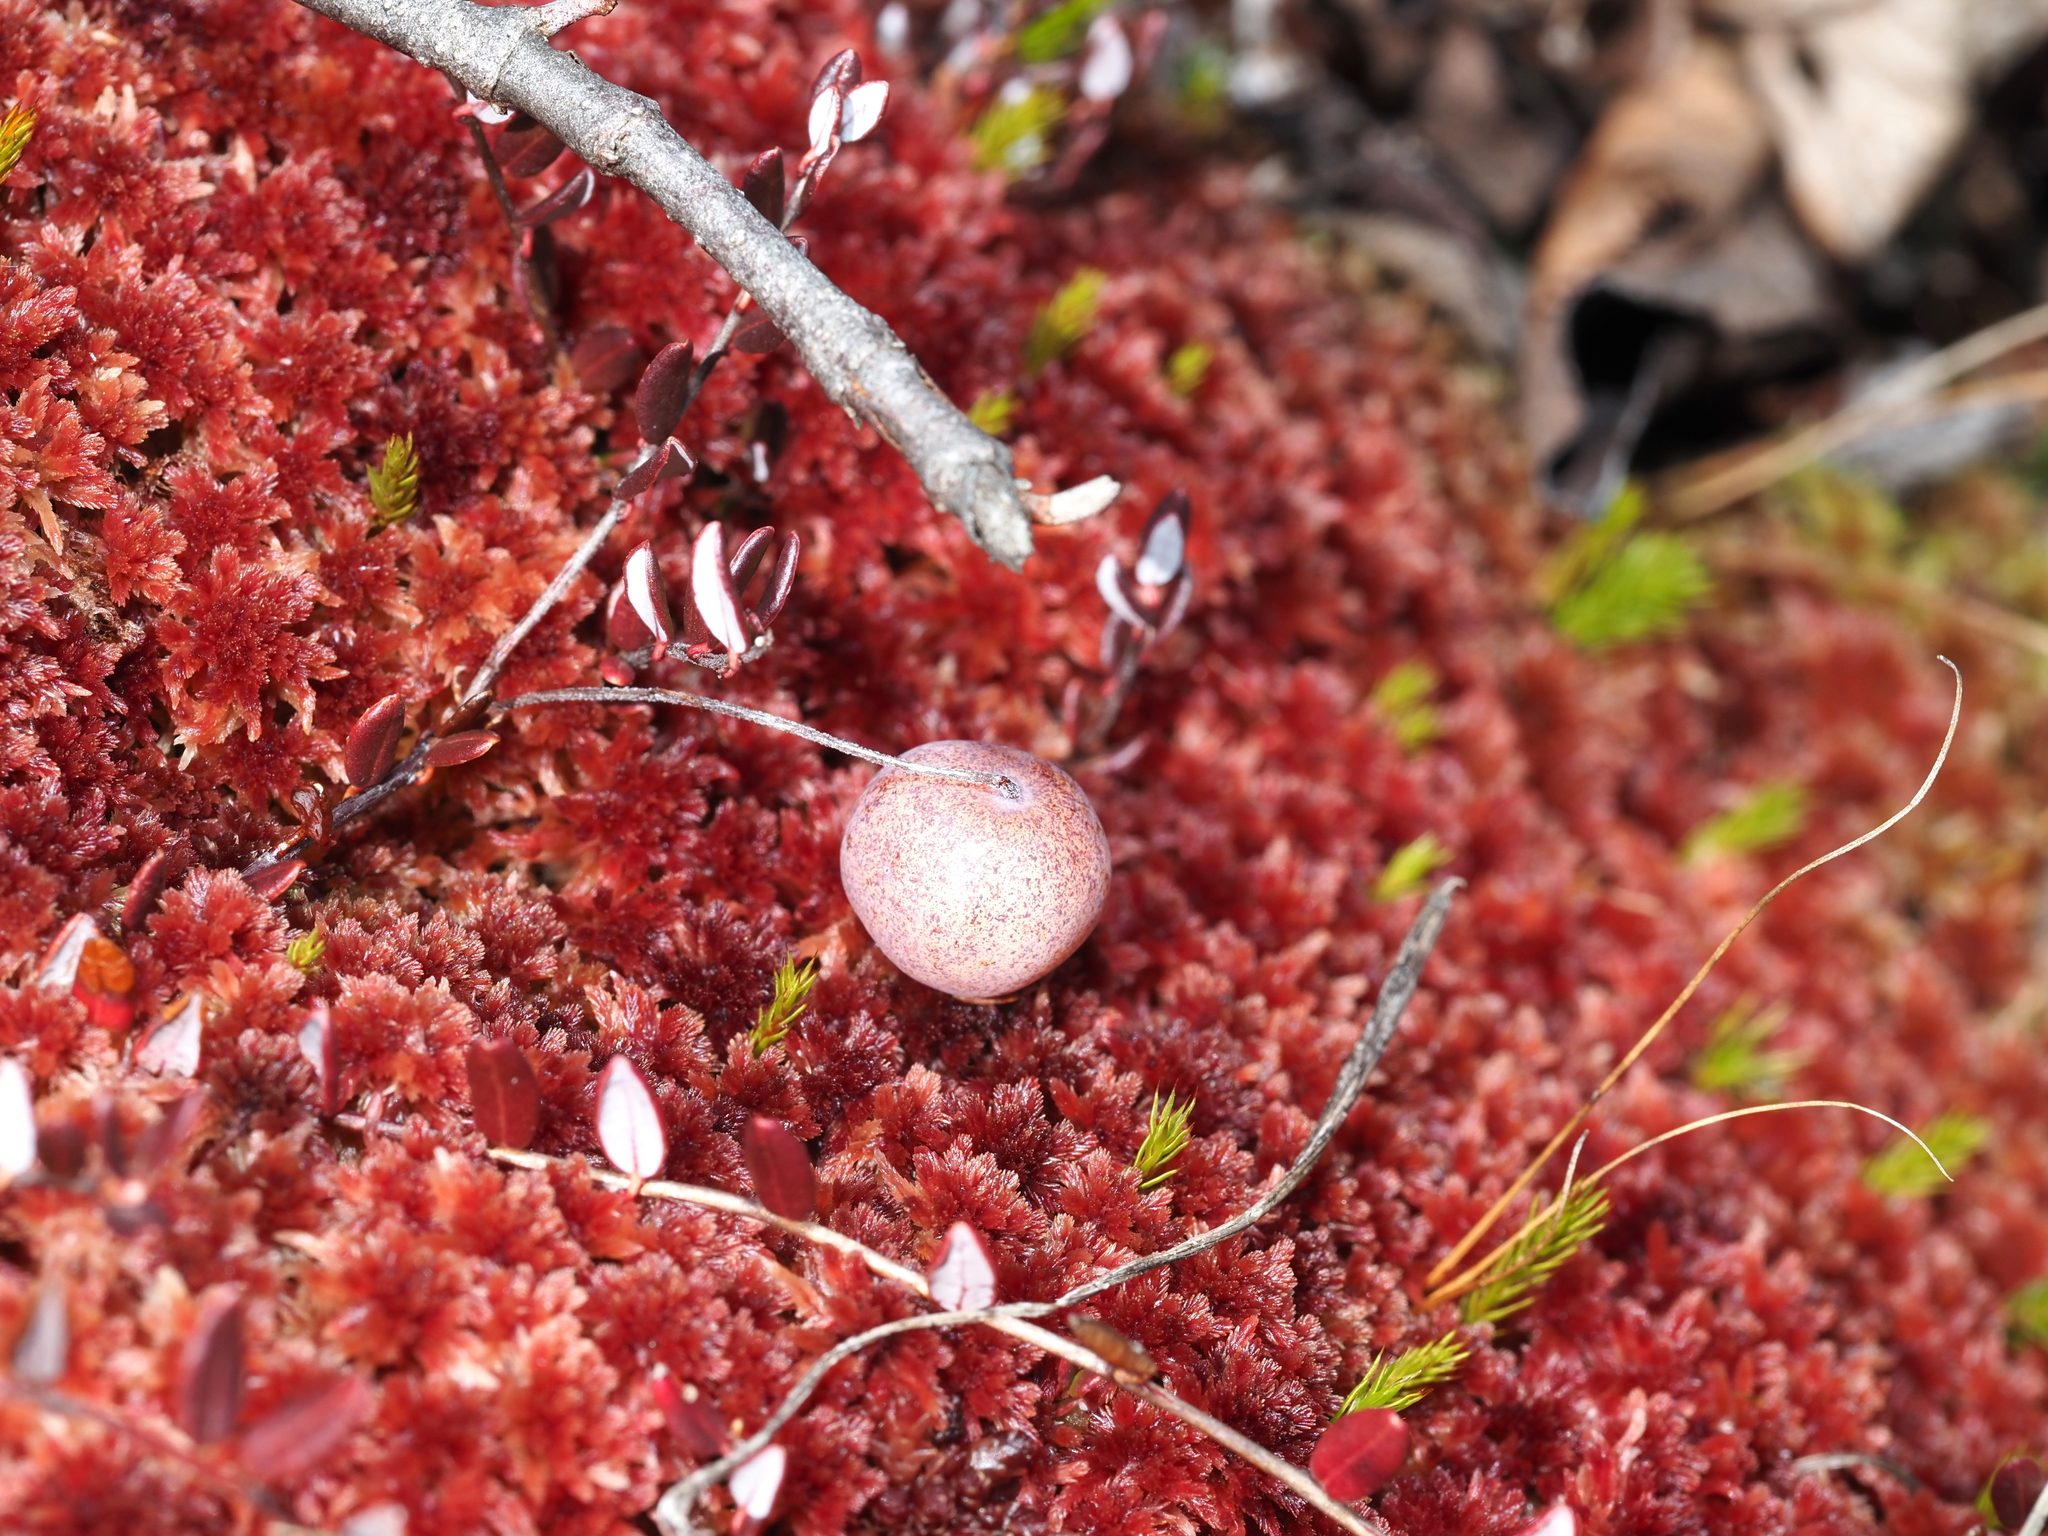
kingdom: Plantae
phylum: Tracheophyta
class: Magnoliopsida
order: Ericales
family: Ericaceae
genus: Vaccinium
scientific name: Vaccinium oxycoccos
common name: Cranberry
